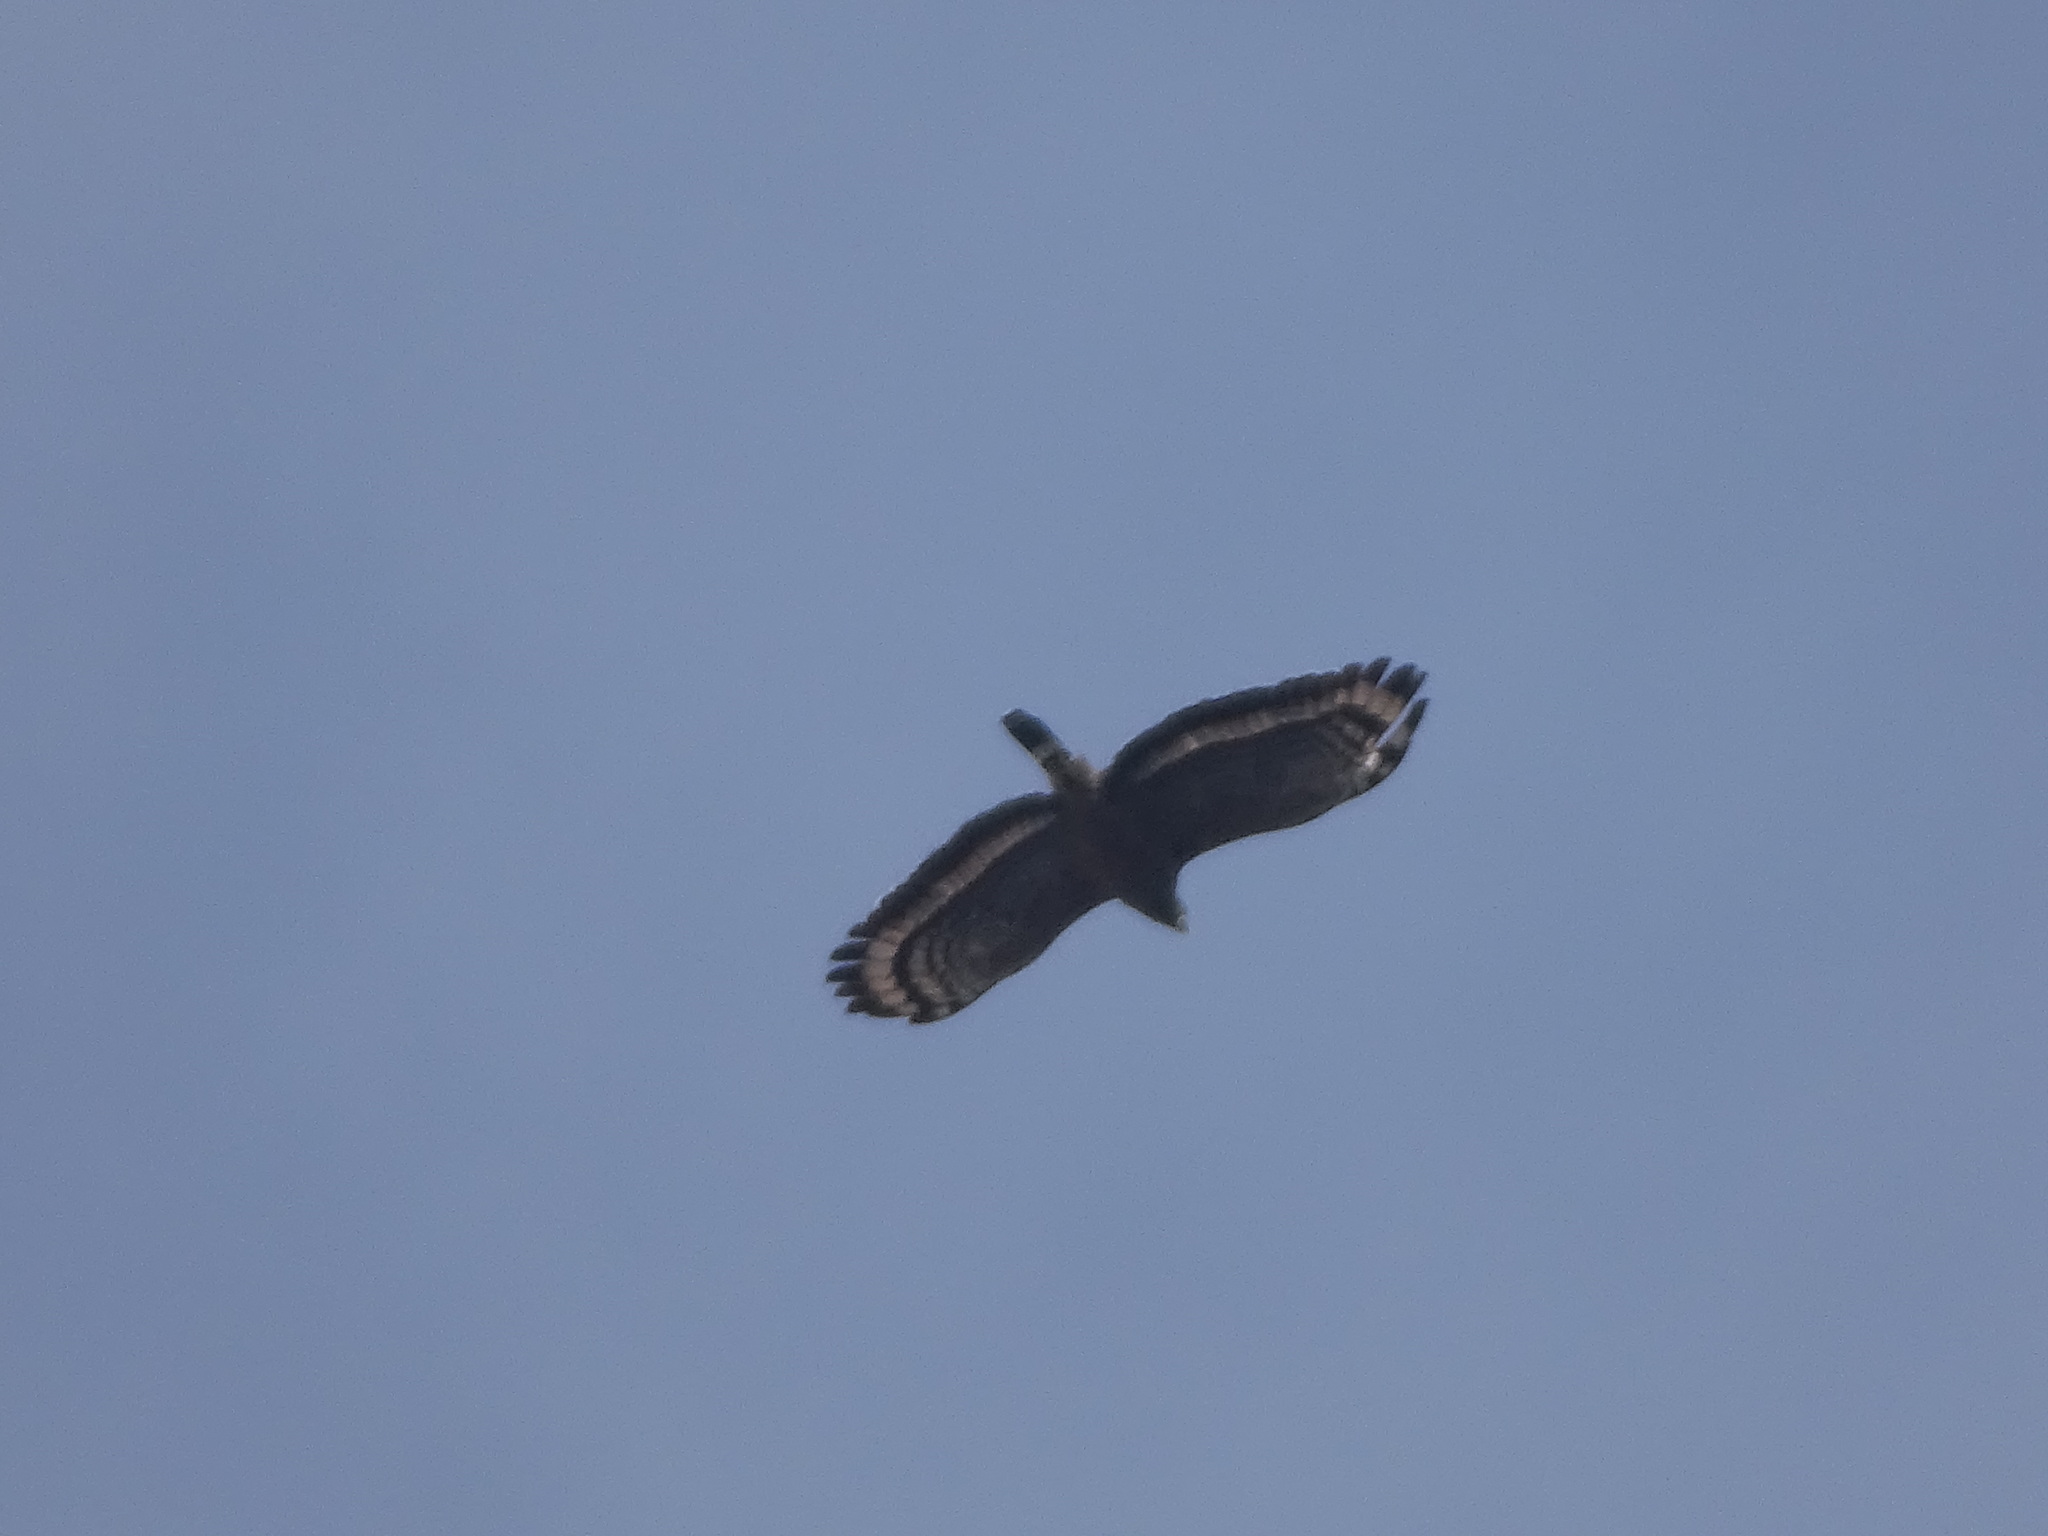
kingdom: Animalia
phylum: Chordata
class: Aves
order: Accipitriformes
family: Accipitridae
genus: Spilornis
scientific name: Spilornis cheela
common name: Crested serpent eagle
